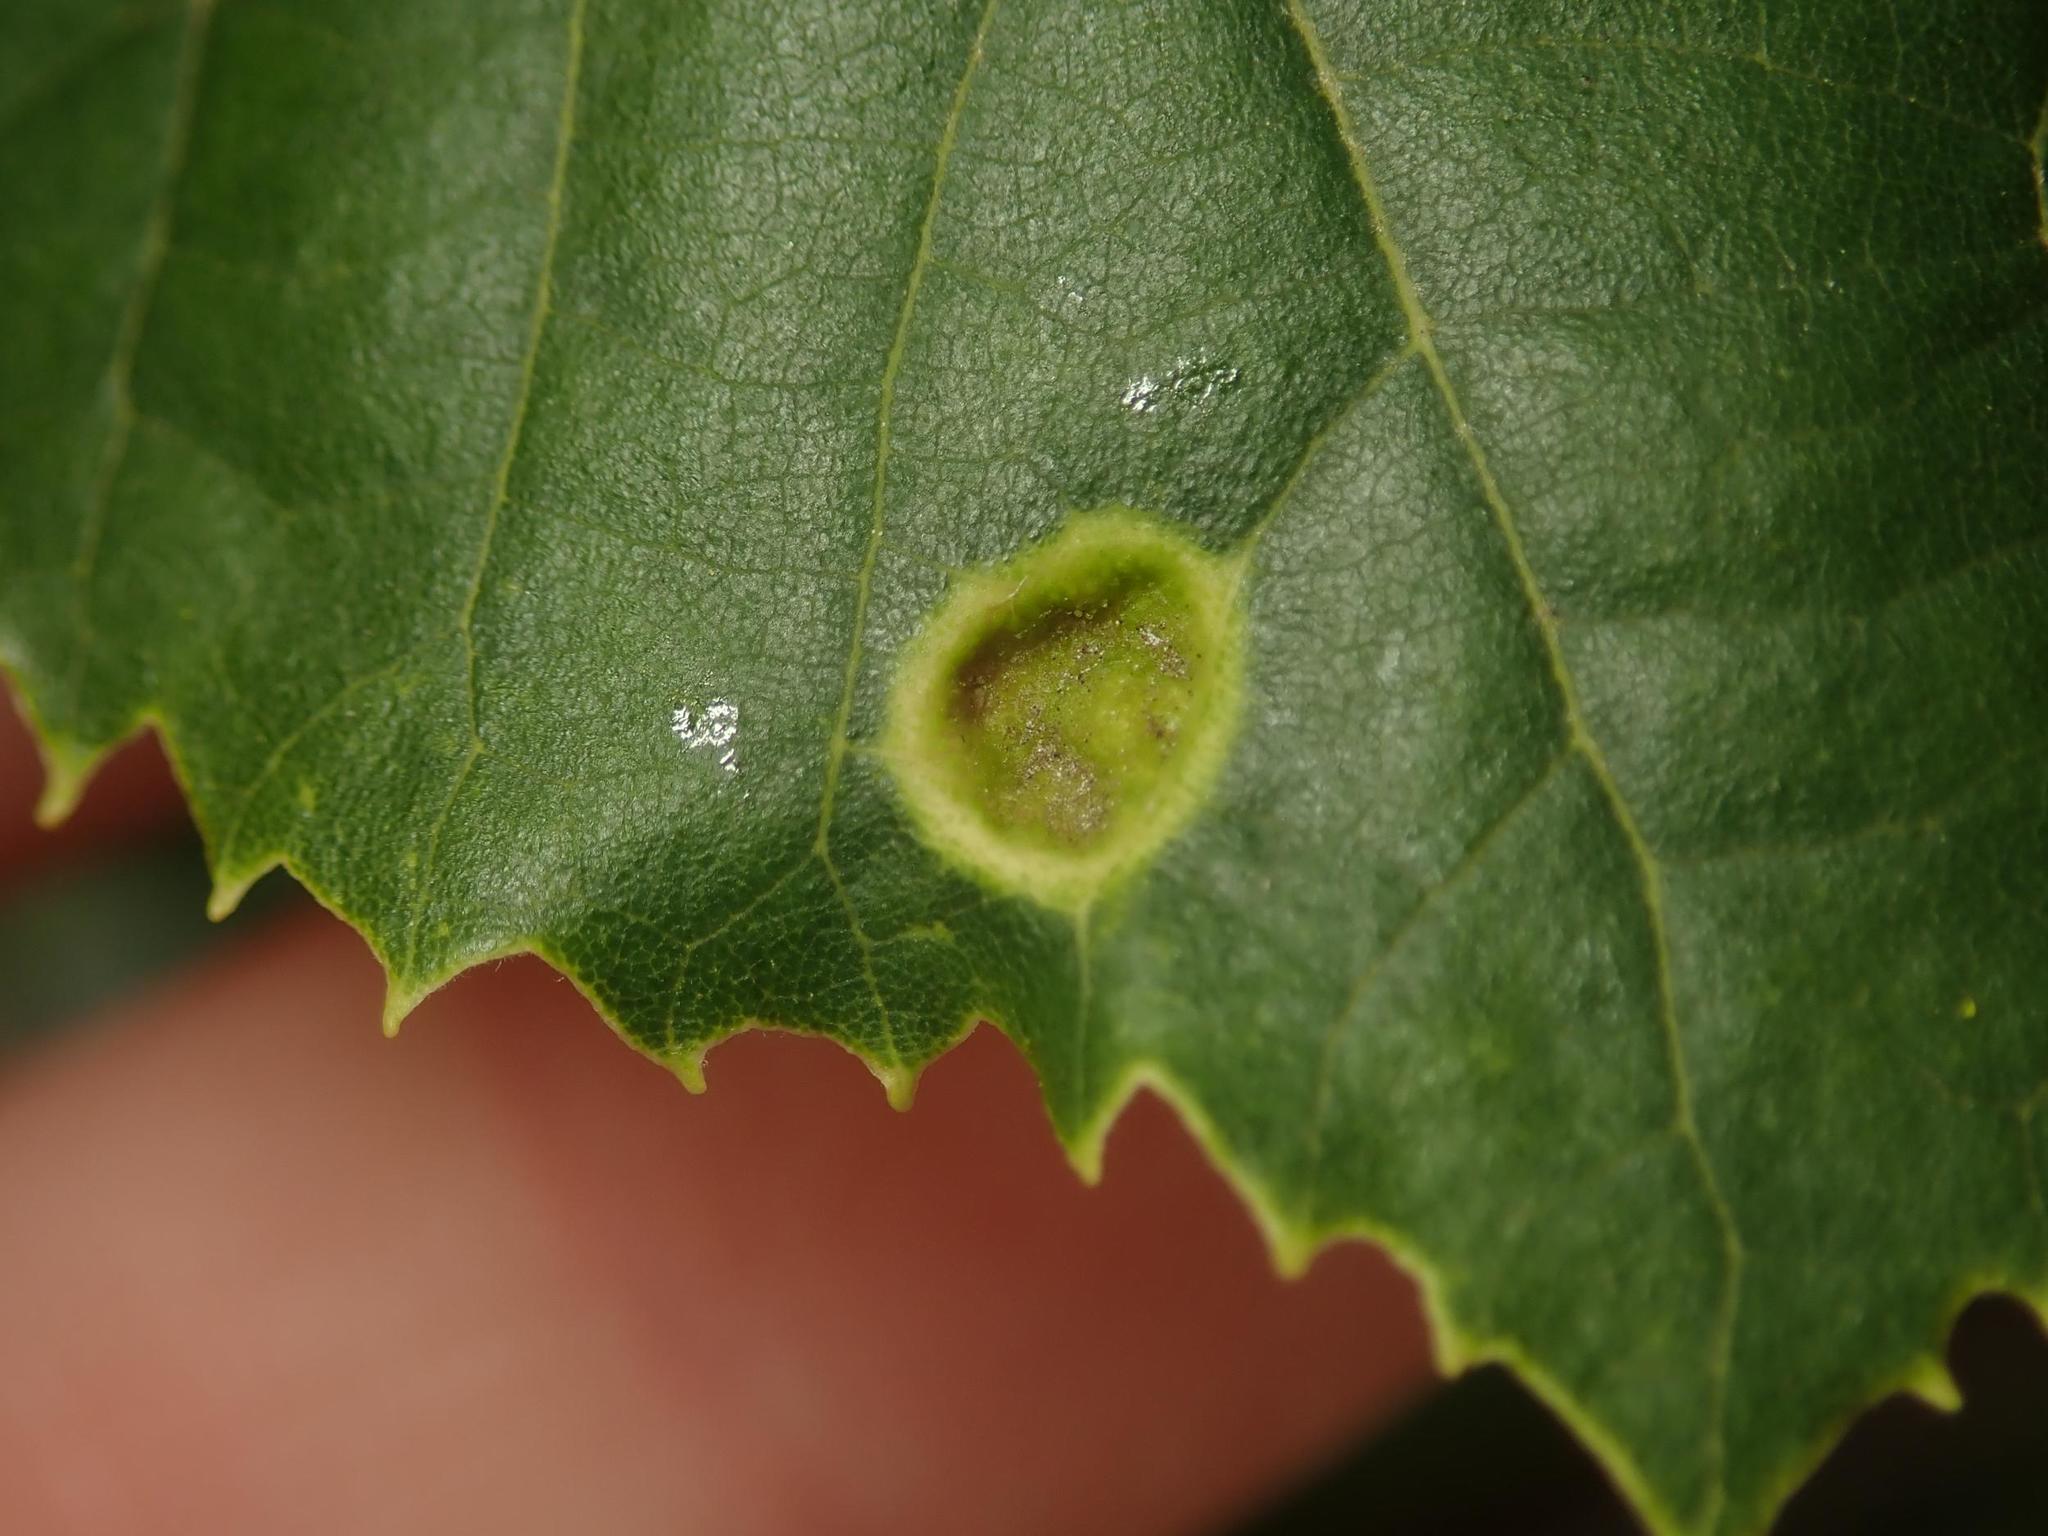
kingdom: Animalia
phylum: Arthropoda
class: Arachnida
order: Trombidiformes
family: Eriophyidae
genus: Eriophyes
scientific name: Eriophyes leiosoma
